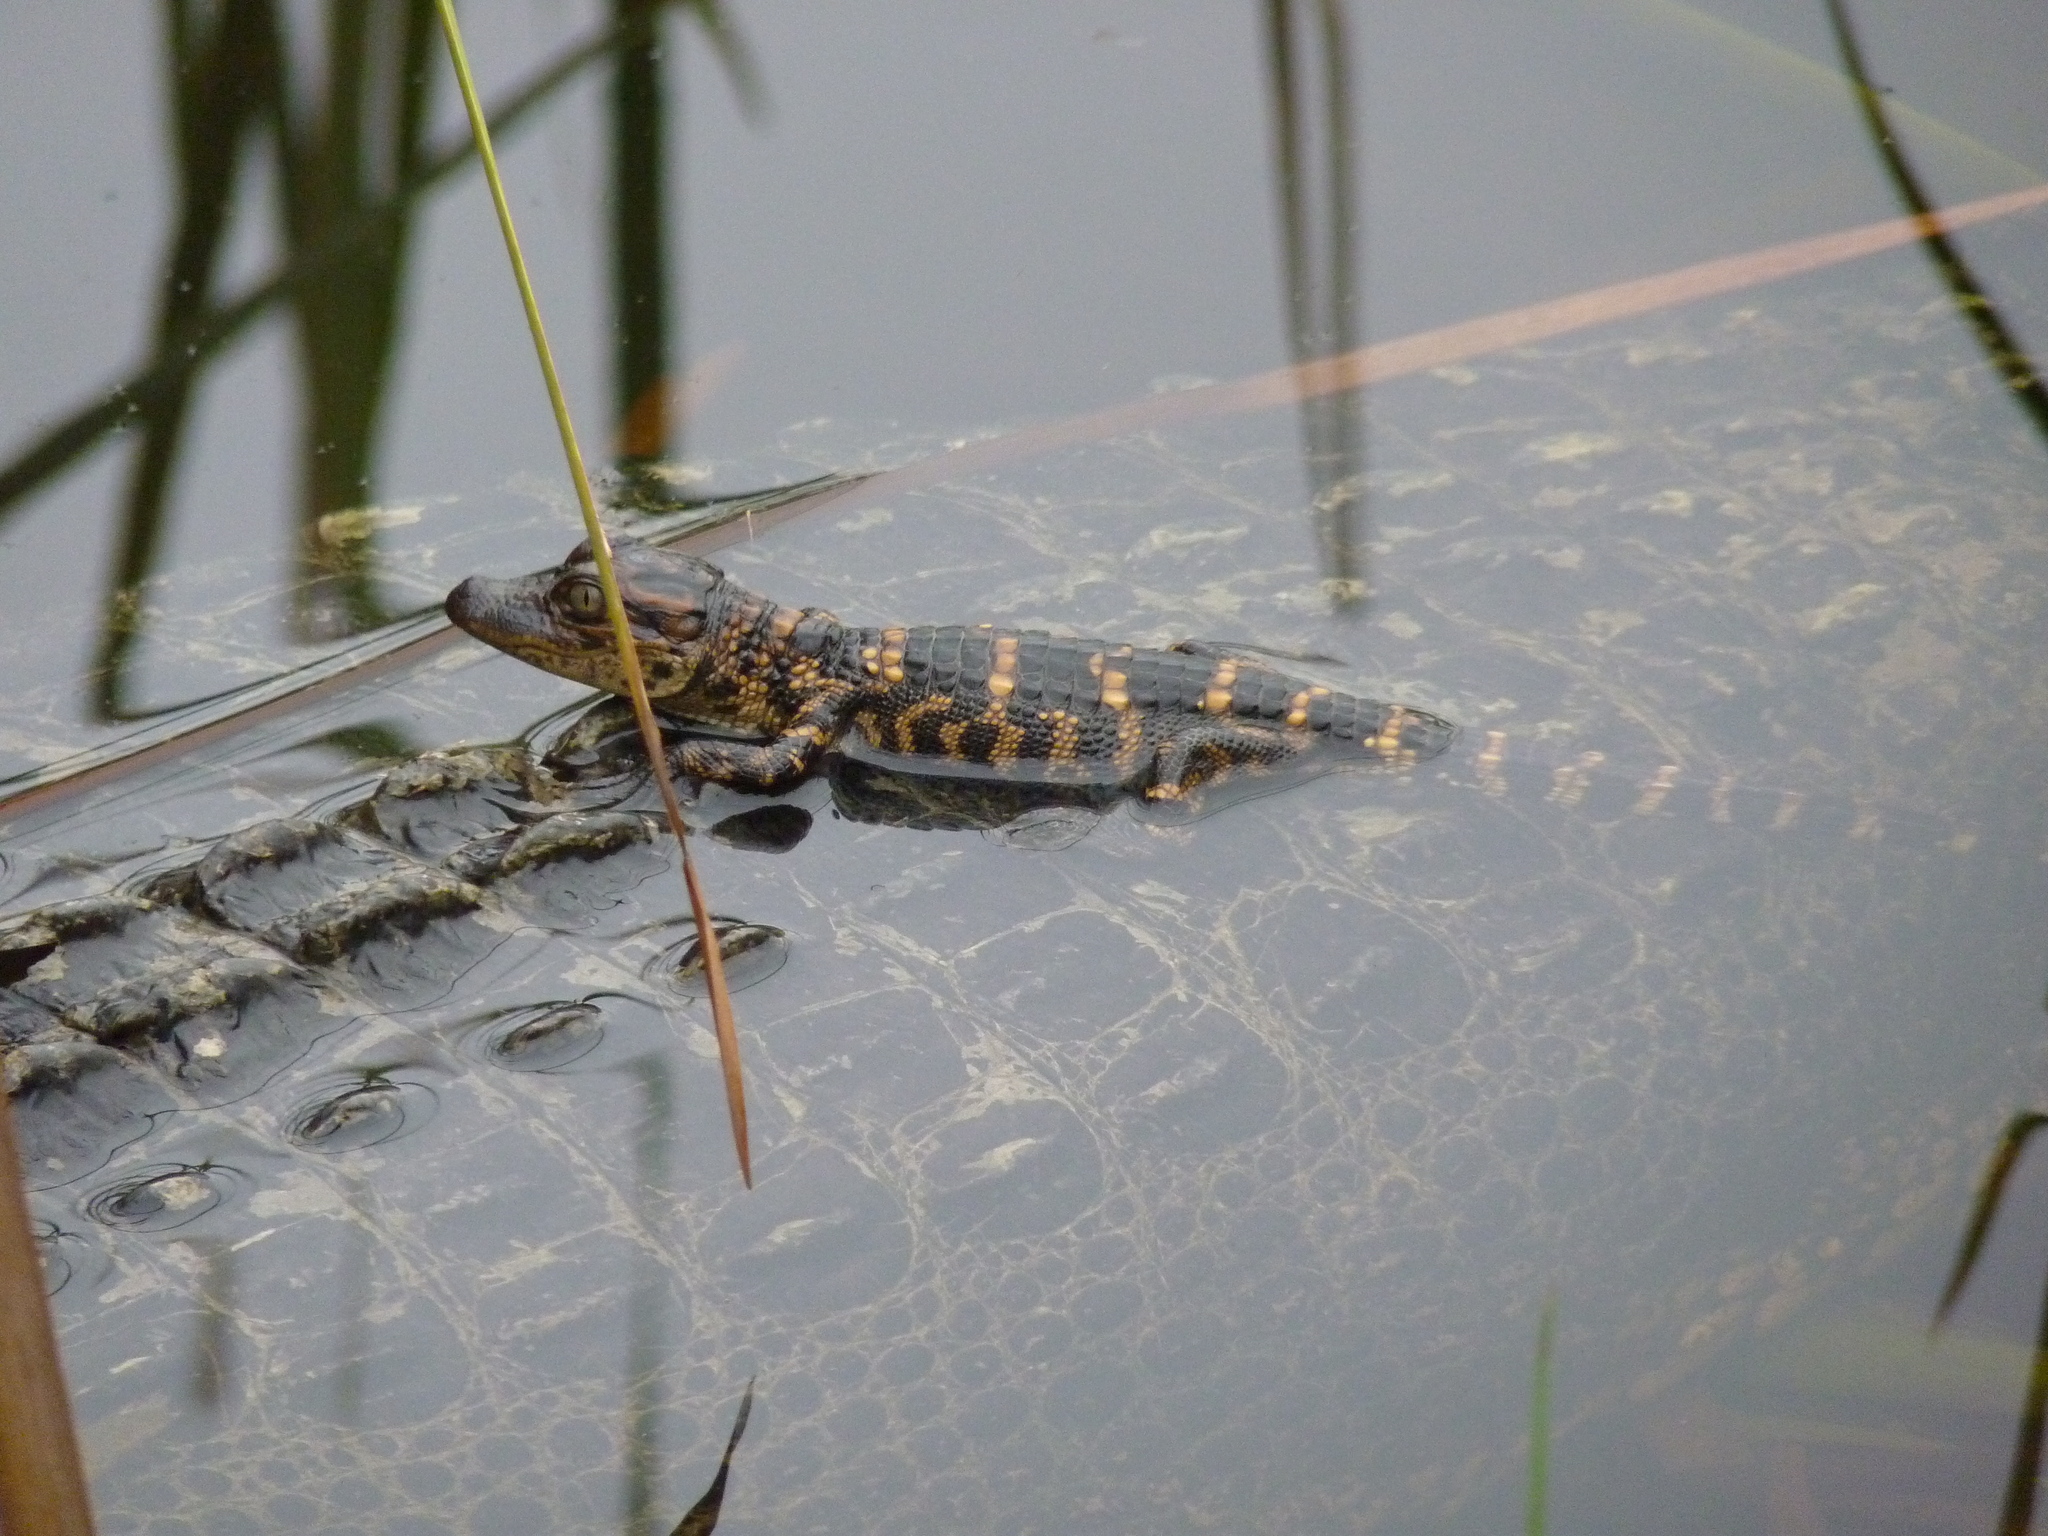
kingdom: Animalia
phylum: Chordata
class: Crocodylia
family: Alligatoridae
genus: Alligator
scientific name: Alligator mississippiensis
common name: American alligator
